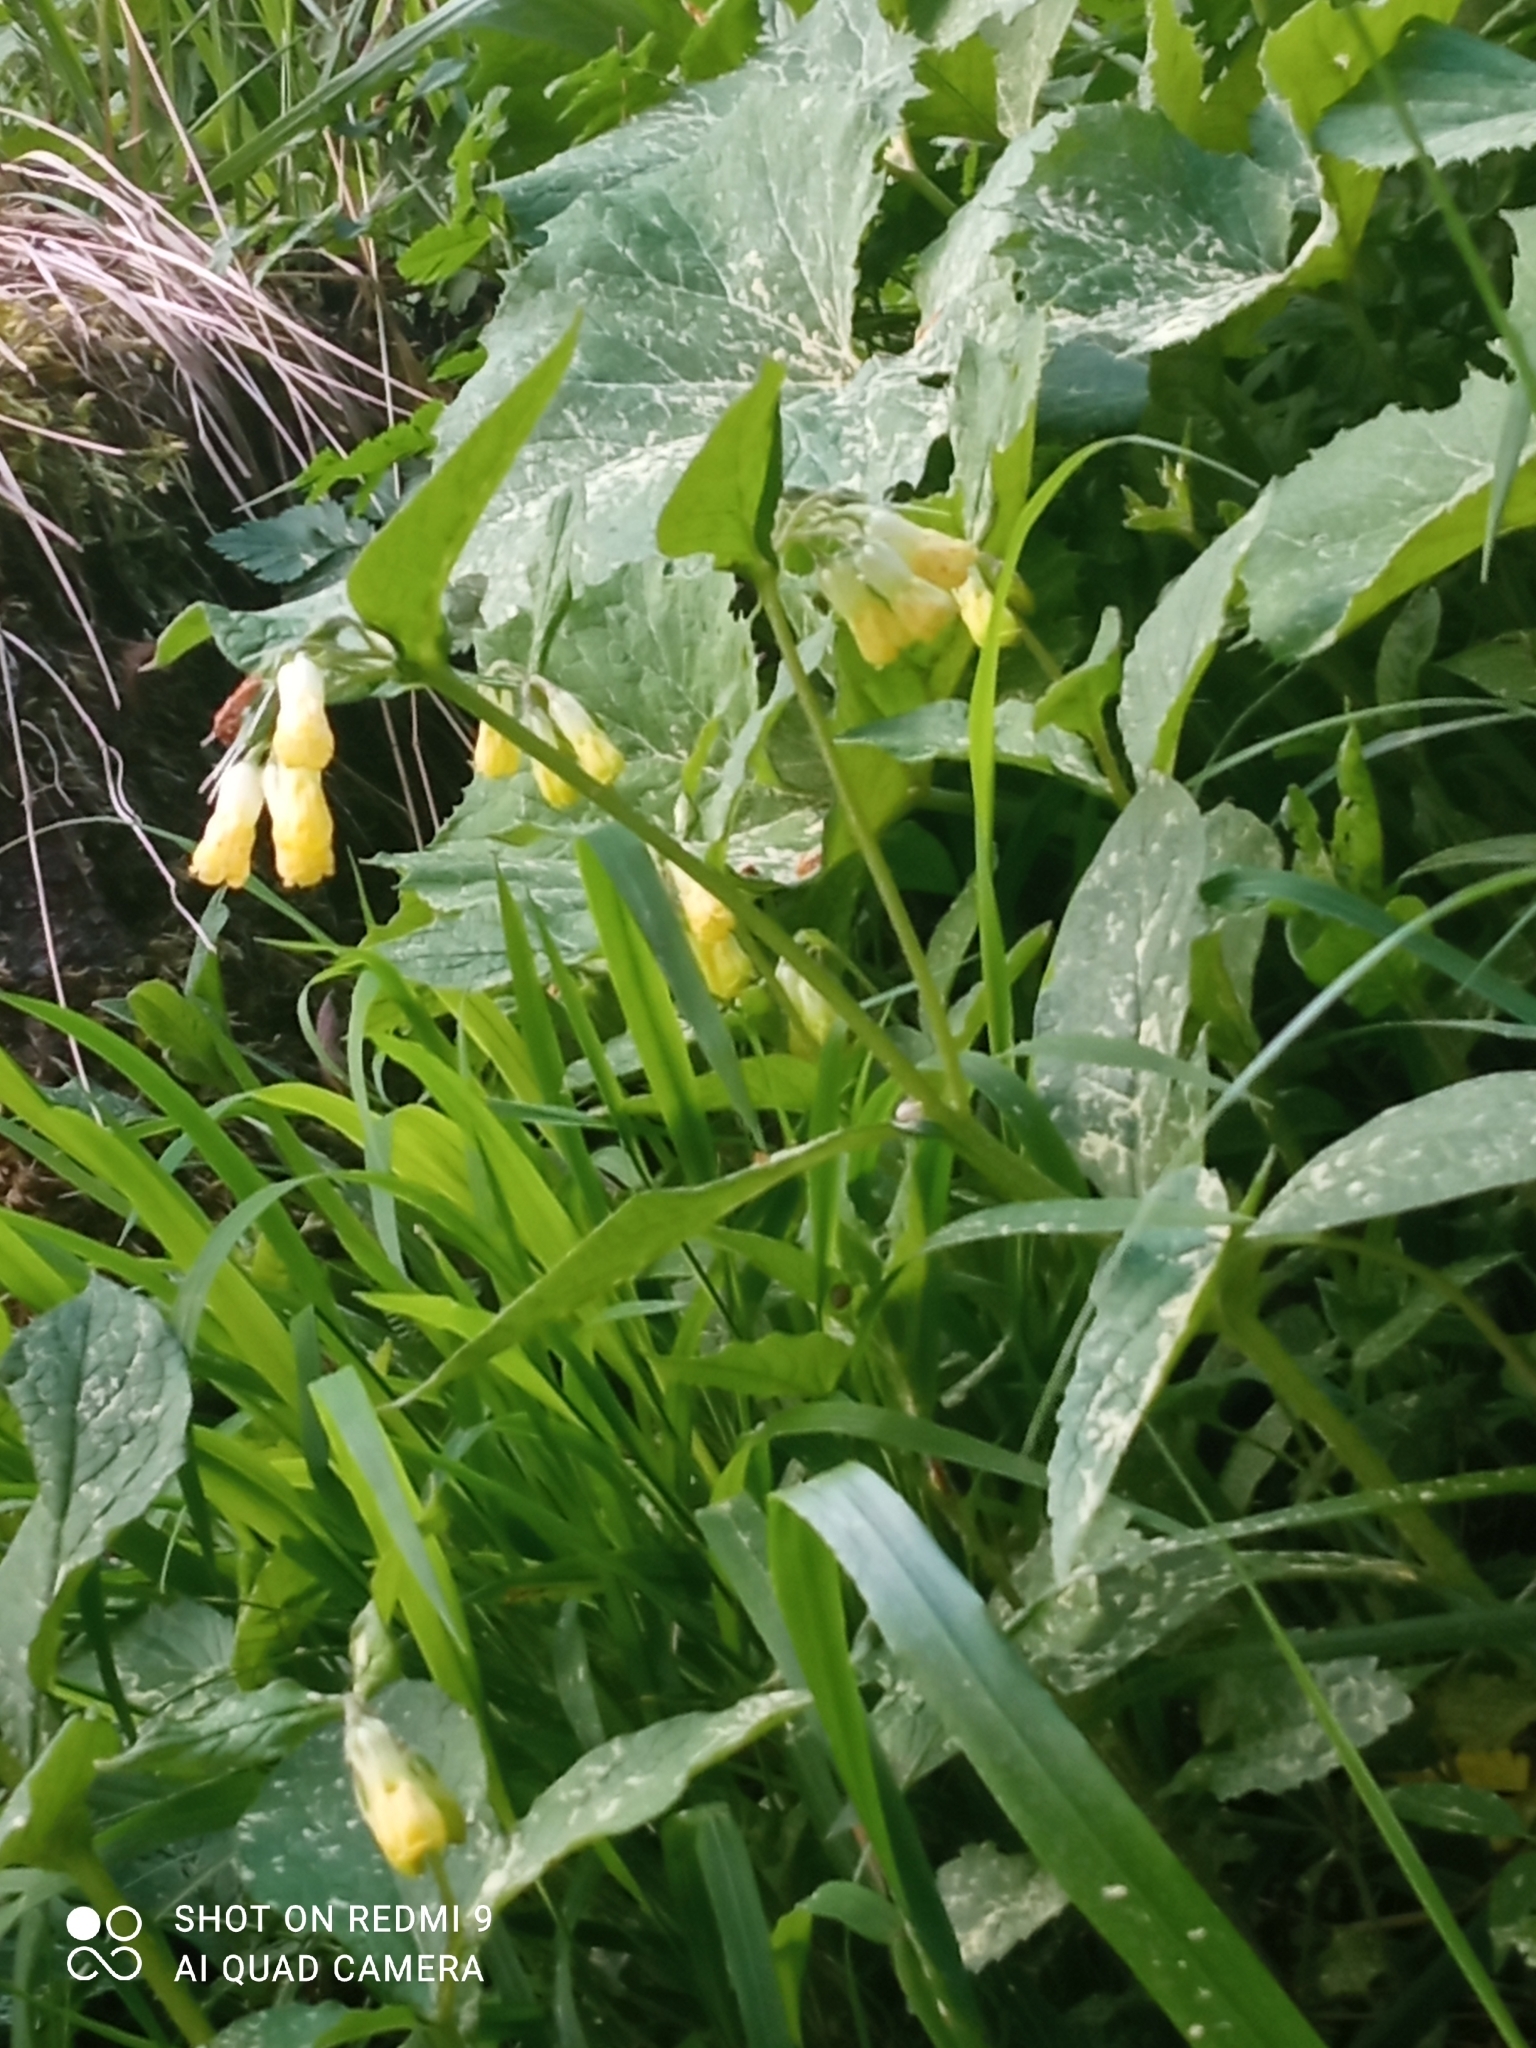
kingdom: Plantae
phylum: Tracheophyta
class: Magnoliopsida
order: Boraginales
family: Boraginaceae
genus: Symphytum
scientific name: Symphytum tuberosum
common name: Tuberous comfrey
